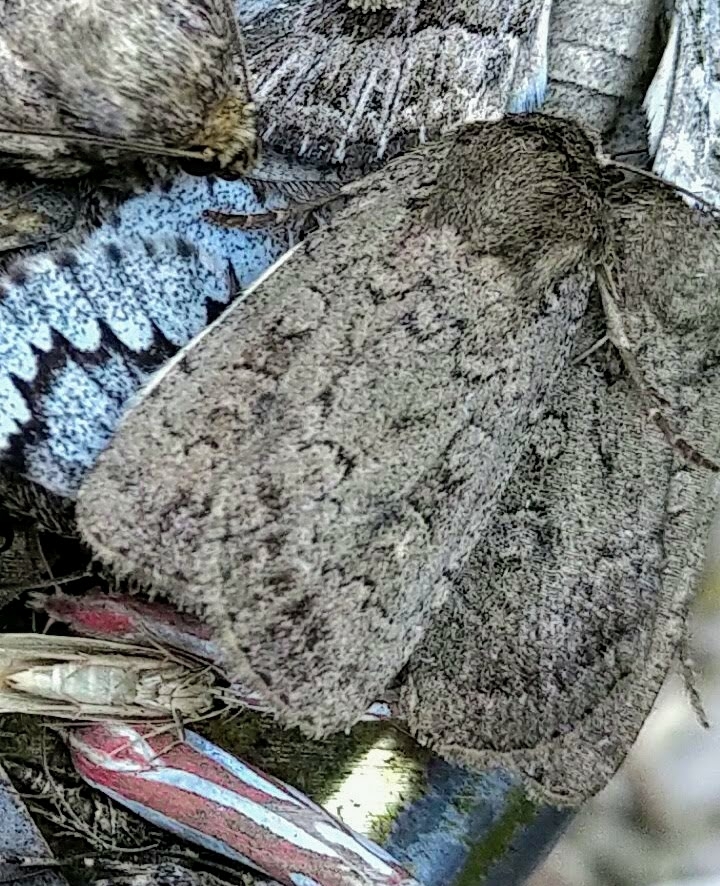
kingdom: Animalia
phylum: Arthropoda
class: Insecta
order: Lepidoptera
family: Noctuidae
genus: Graphiphora
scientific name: Graphiphora augur
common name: Double dart
